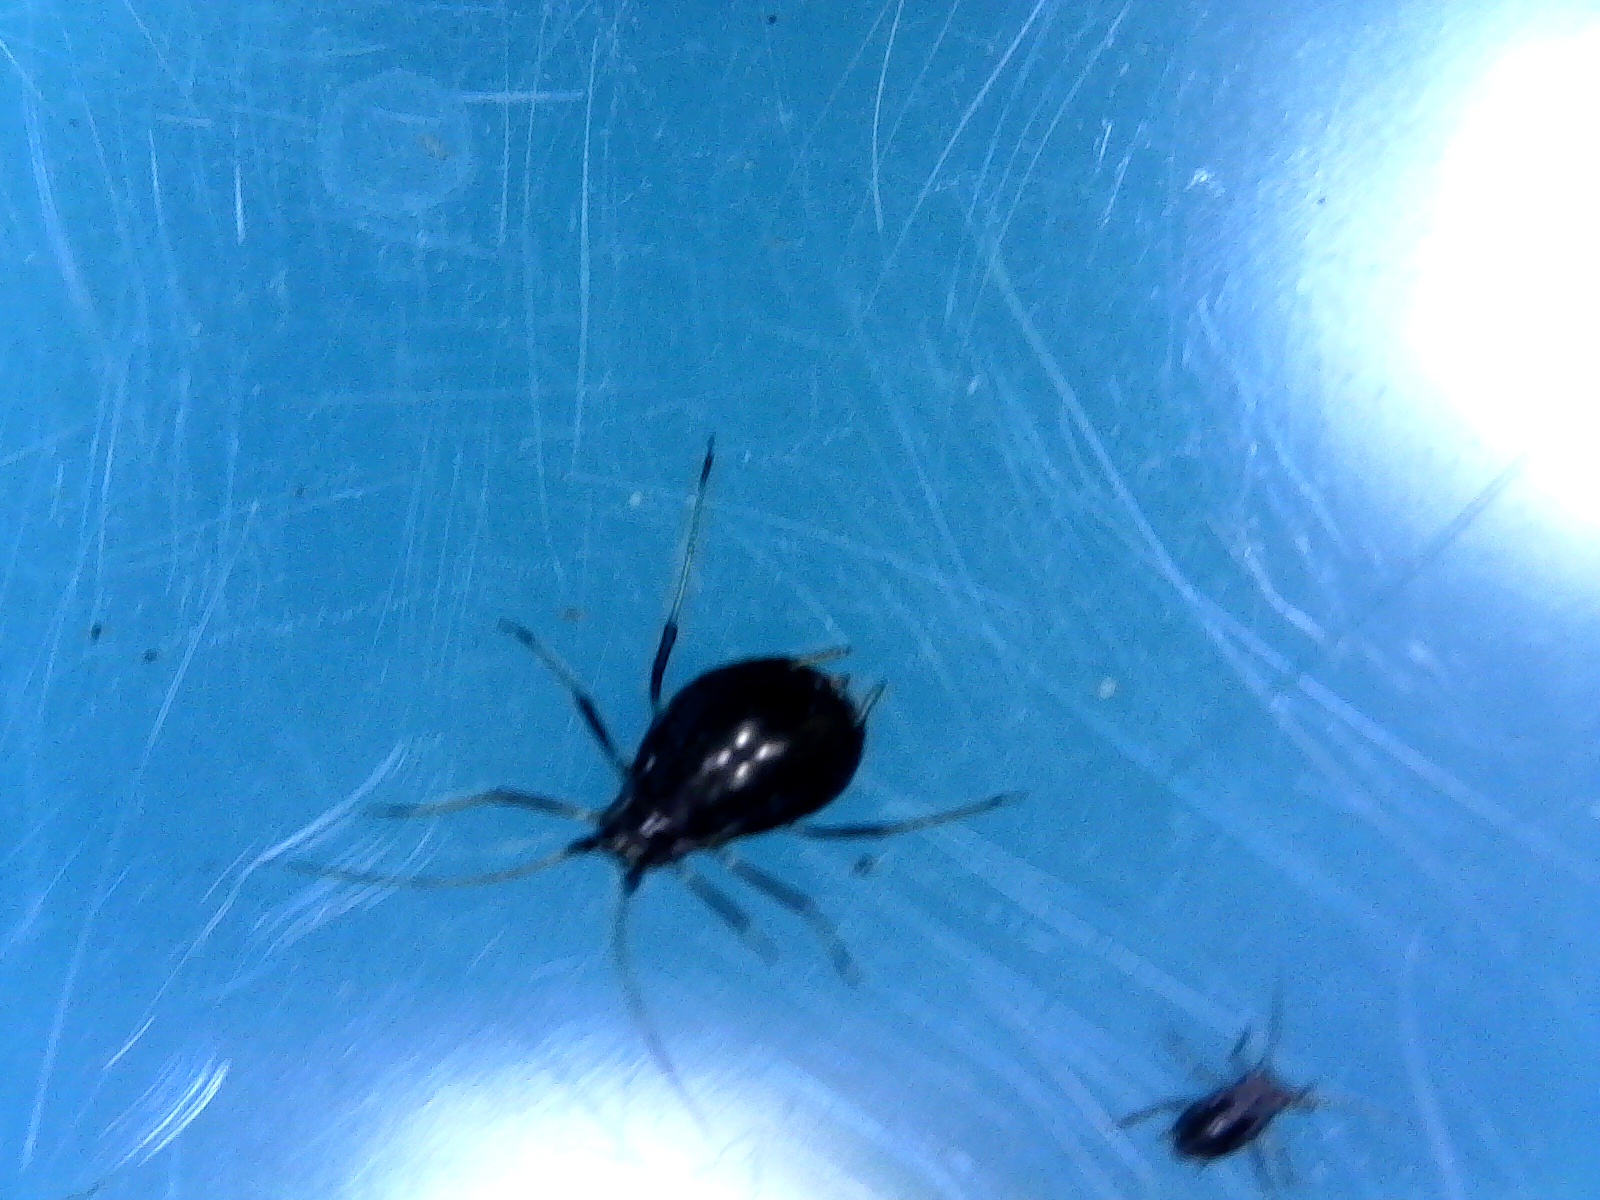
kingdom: Animalia
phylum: Arthropoda
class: Insecta
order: Hemiptera
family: Aphididae
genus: Neotoxoptera
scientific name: Neotoxoptera formosana
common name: Onion aphid
